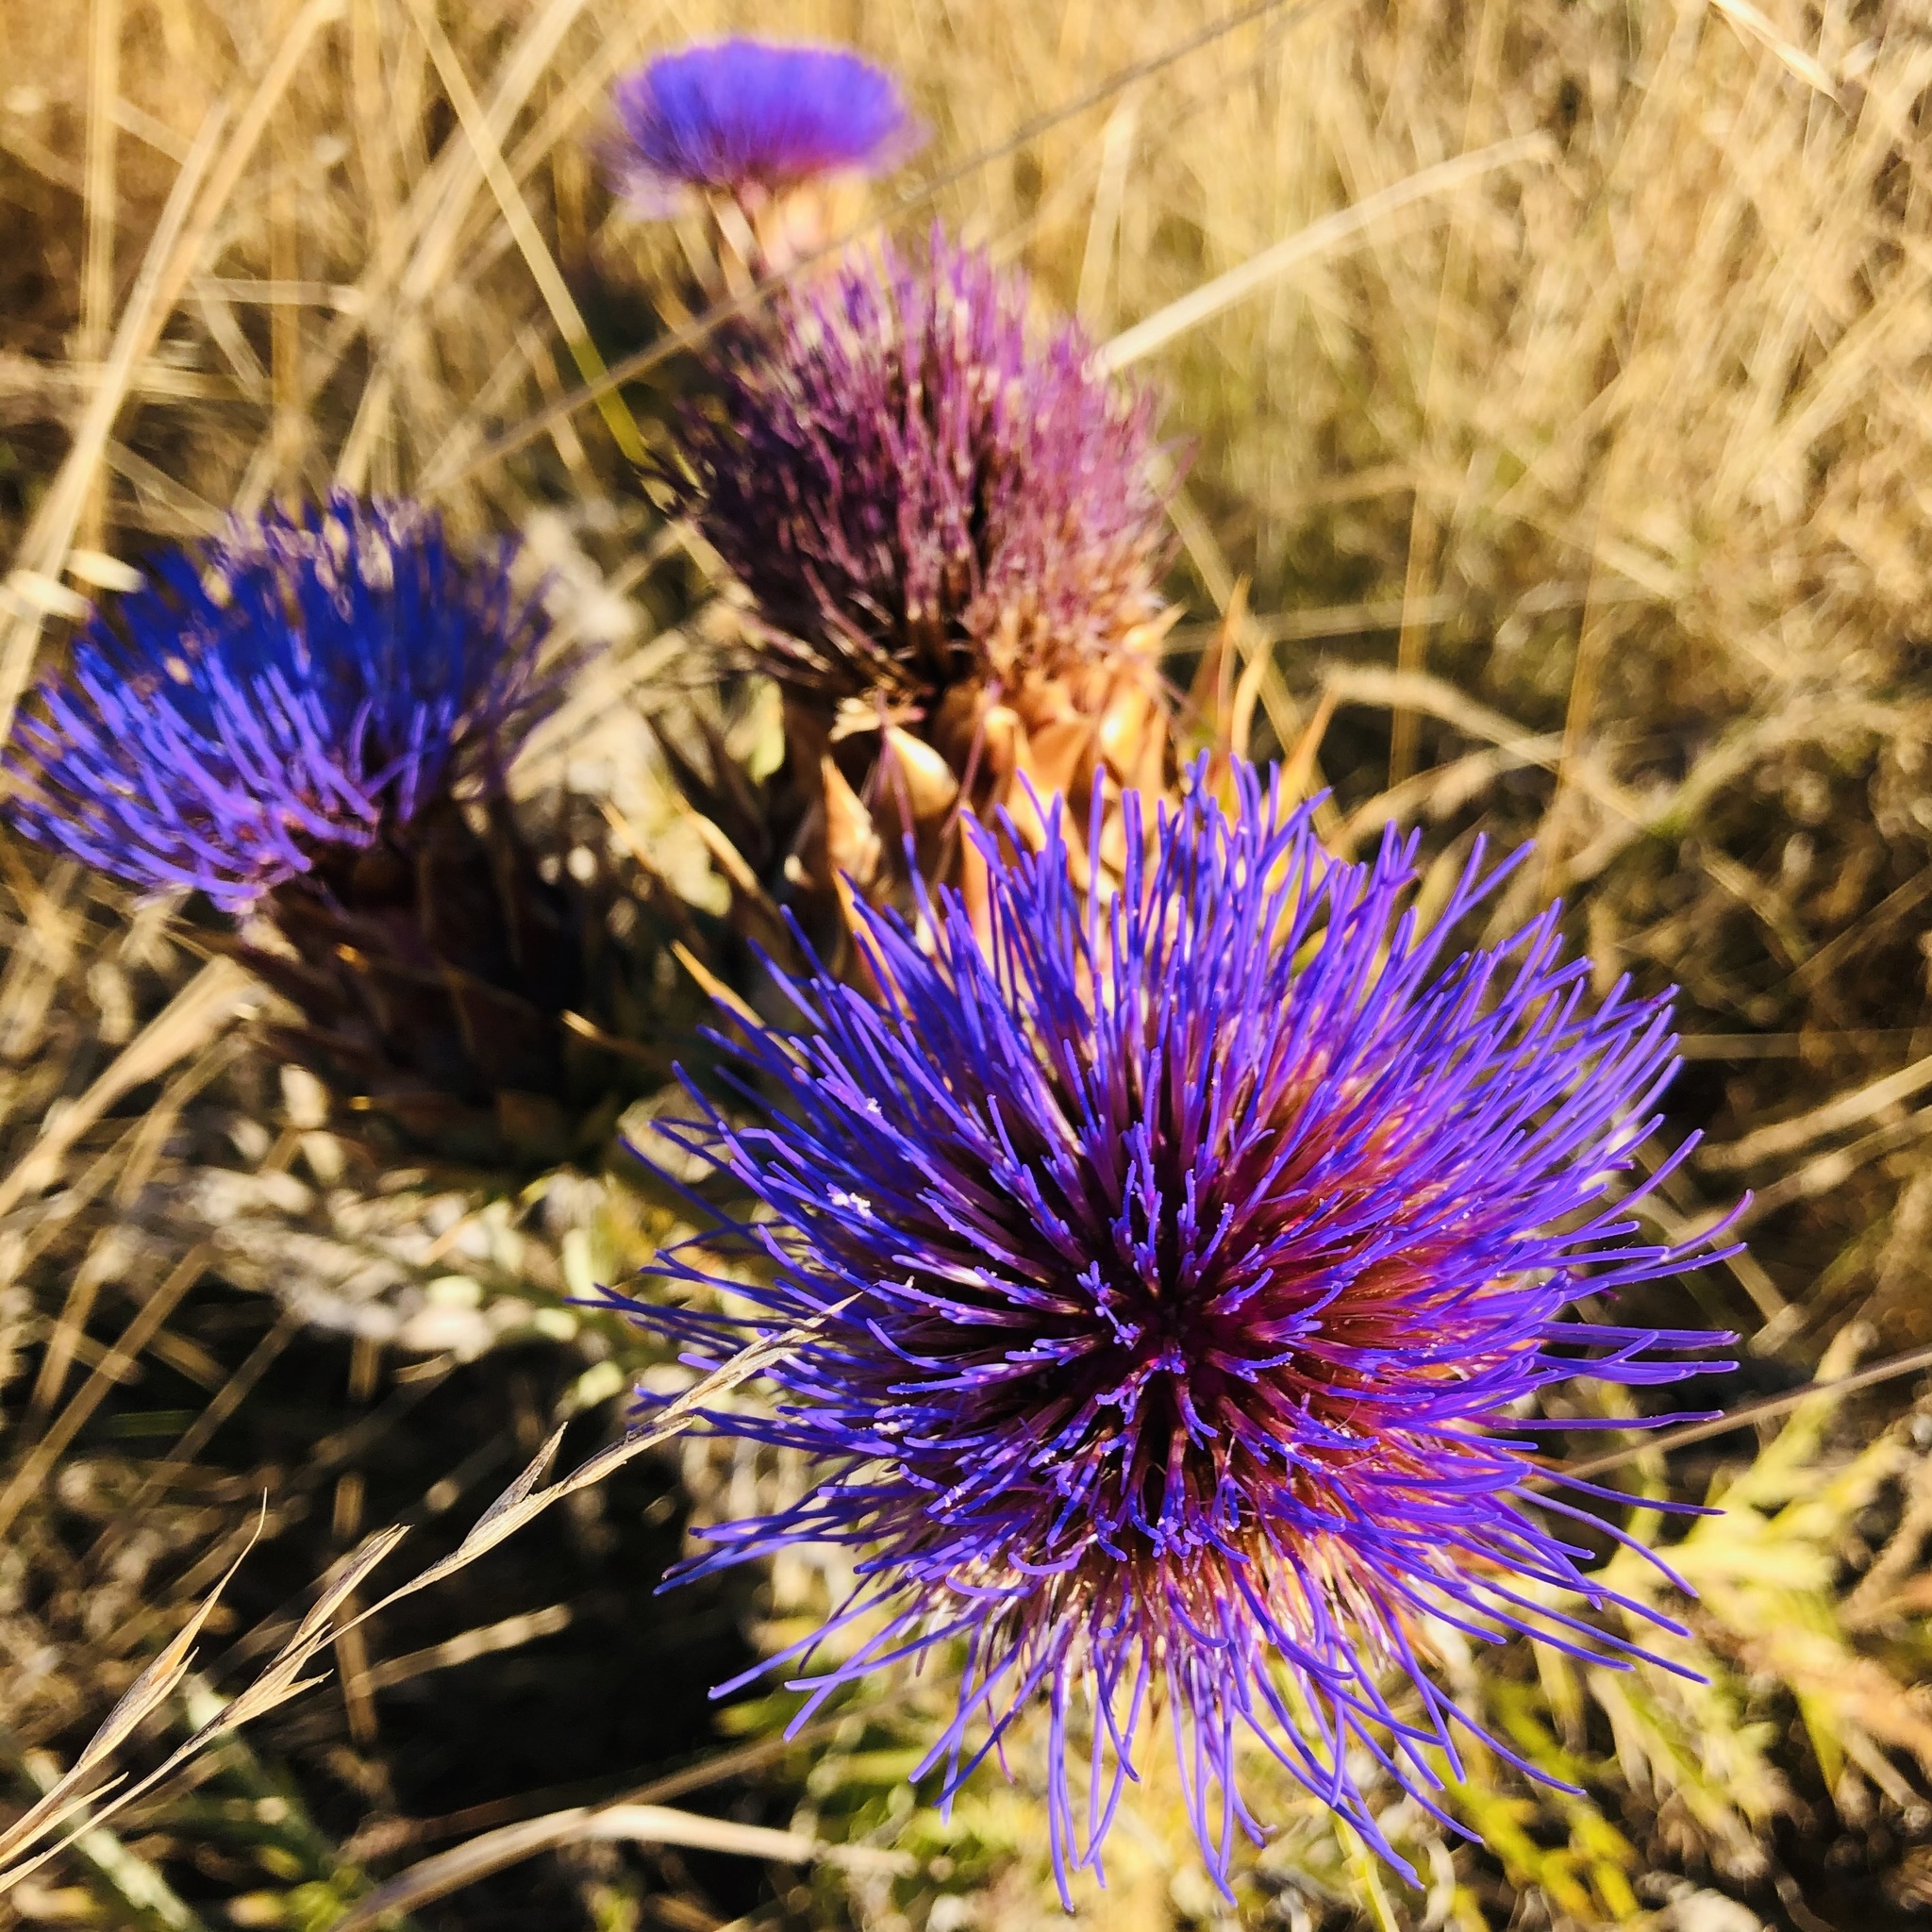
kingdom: Plantae
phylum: Tracheophyta
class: Magnoliopsida
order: Asterales
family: Asteraceae
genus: Cynara
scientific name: Cynara cardunculus
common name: Globe artichoke
